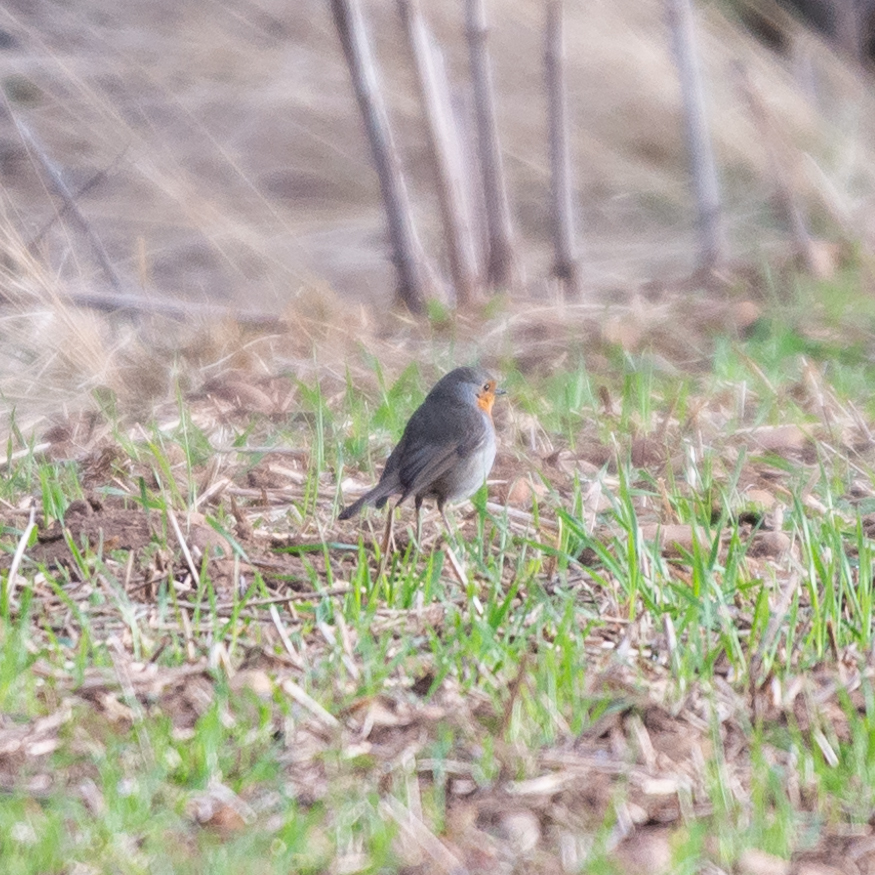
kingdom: Animalia
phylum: Chordata
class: Aves
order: Passeriformes
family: Muscicapidae
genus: Erithacus
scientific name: Erithacus rubecula
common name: European robin
